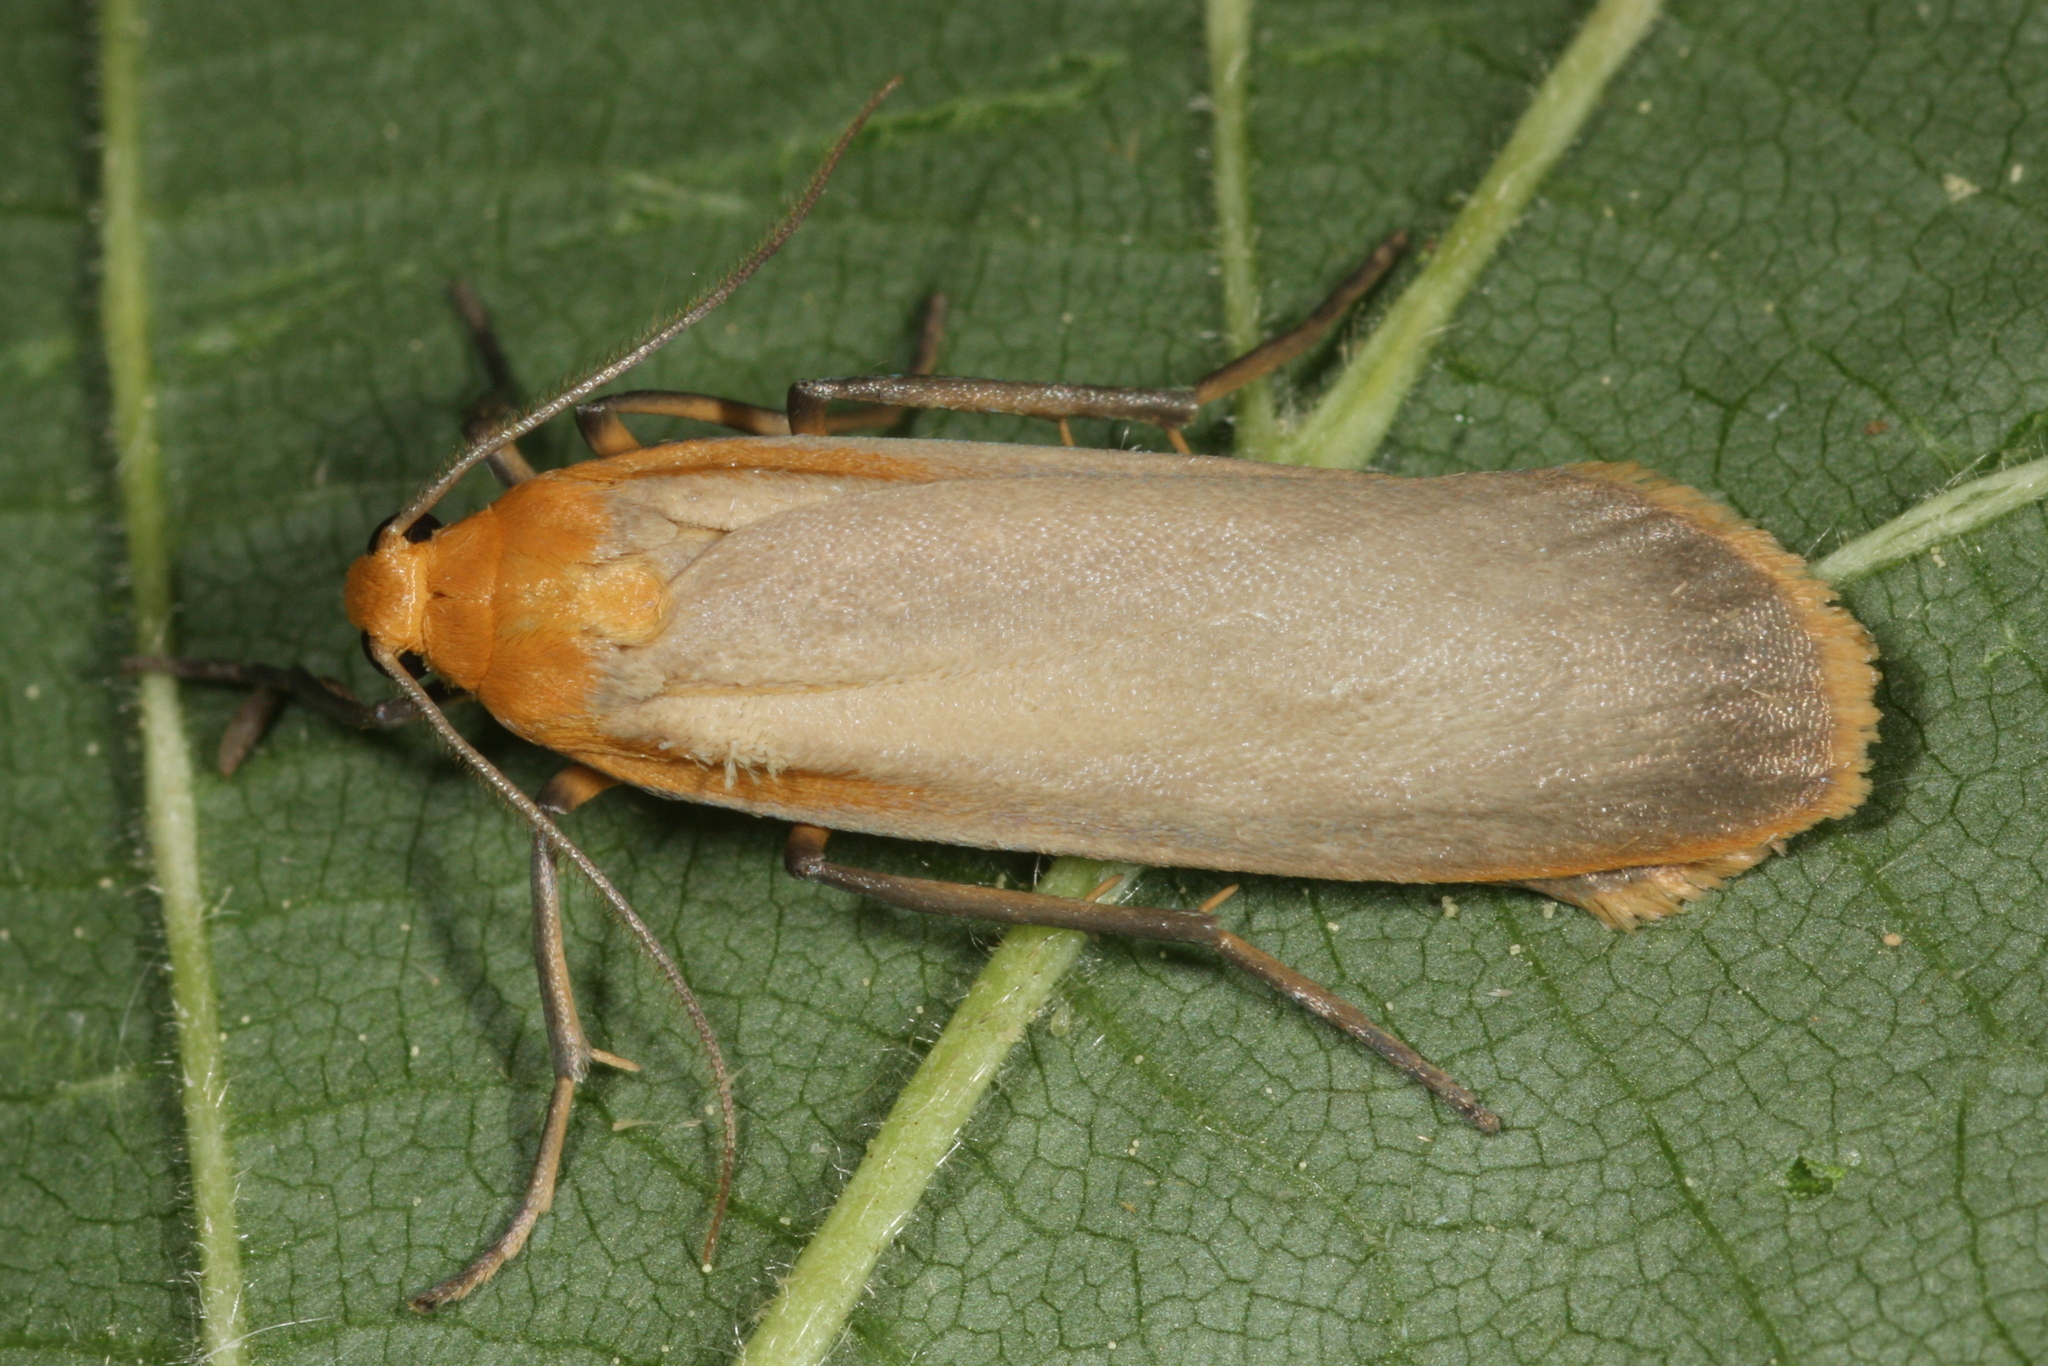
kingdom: Animalia
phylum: Arthropoda
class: Insecta
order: Lepidoptera
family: Erebidae
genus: Katha
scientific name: Katha depressa
